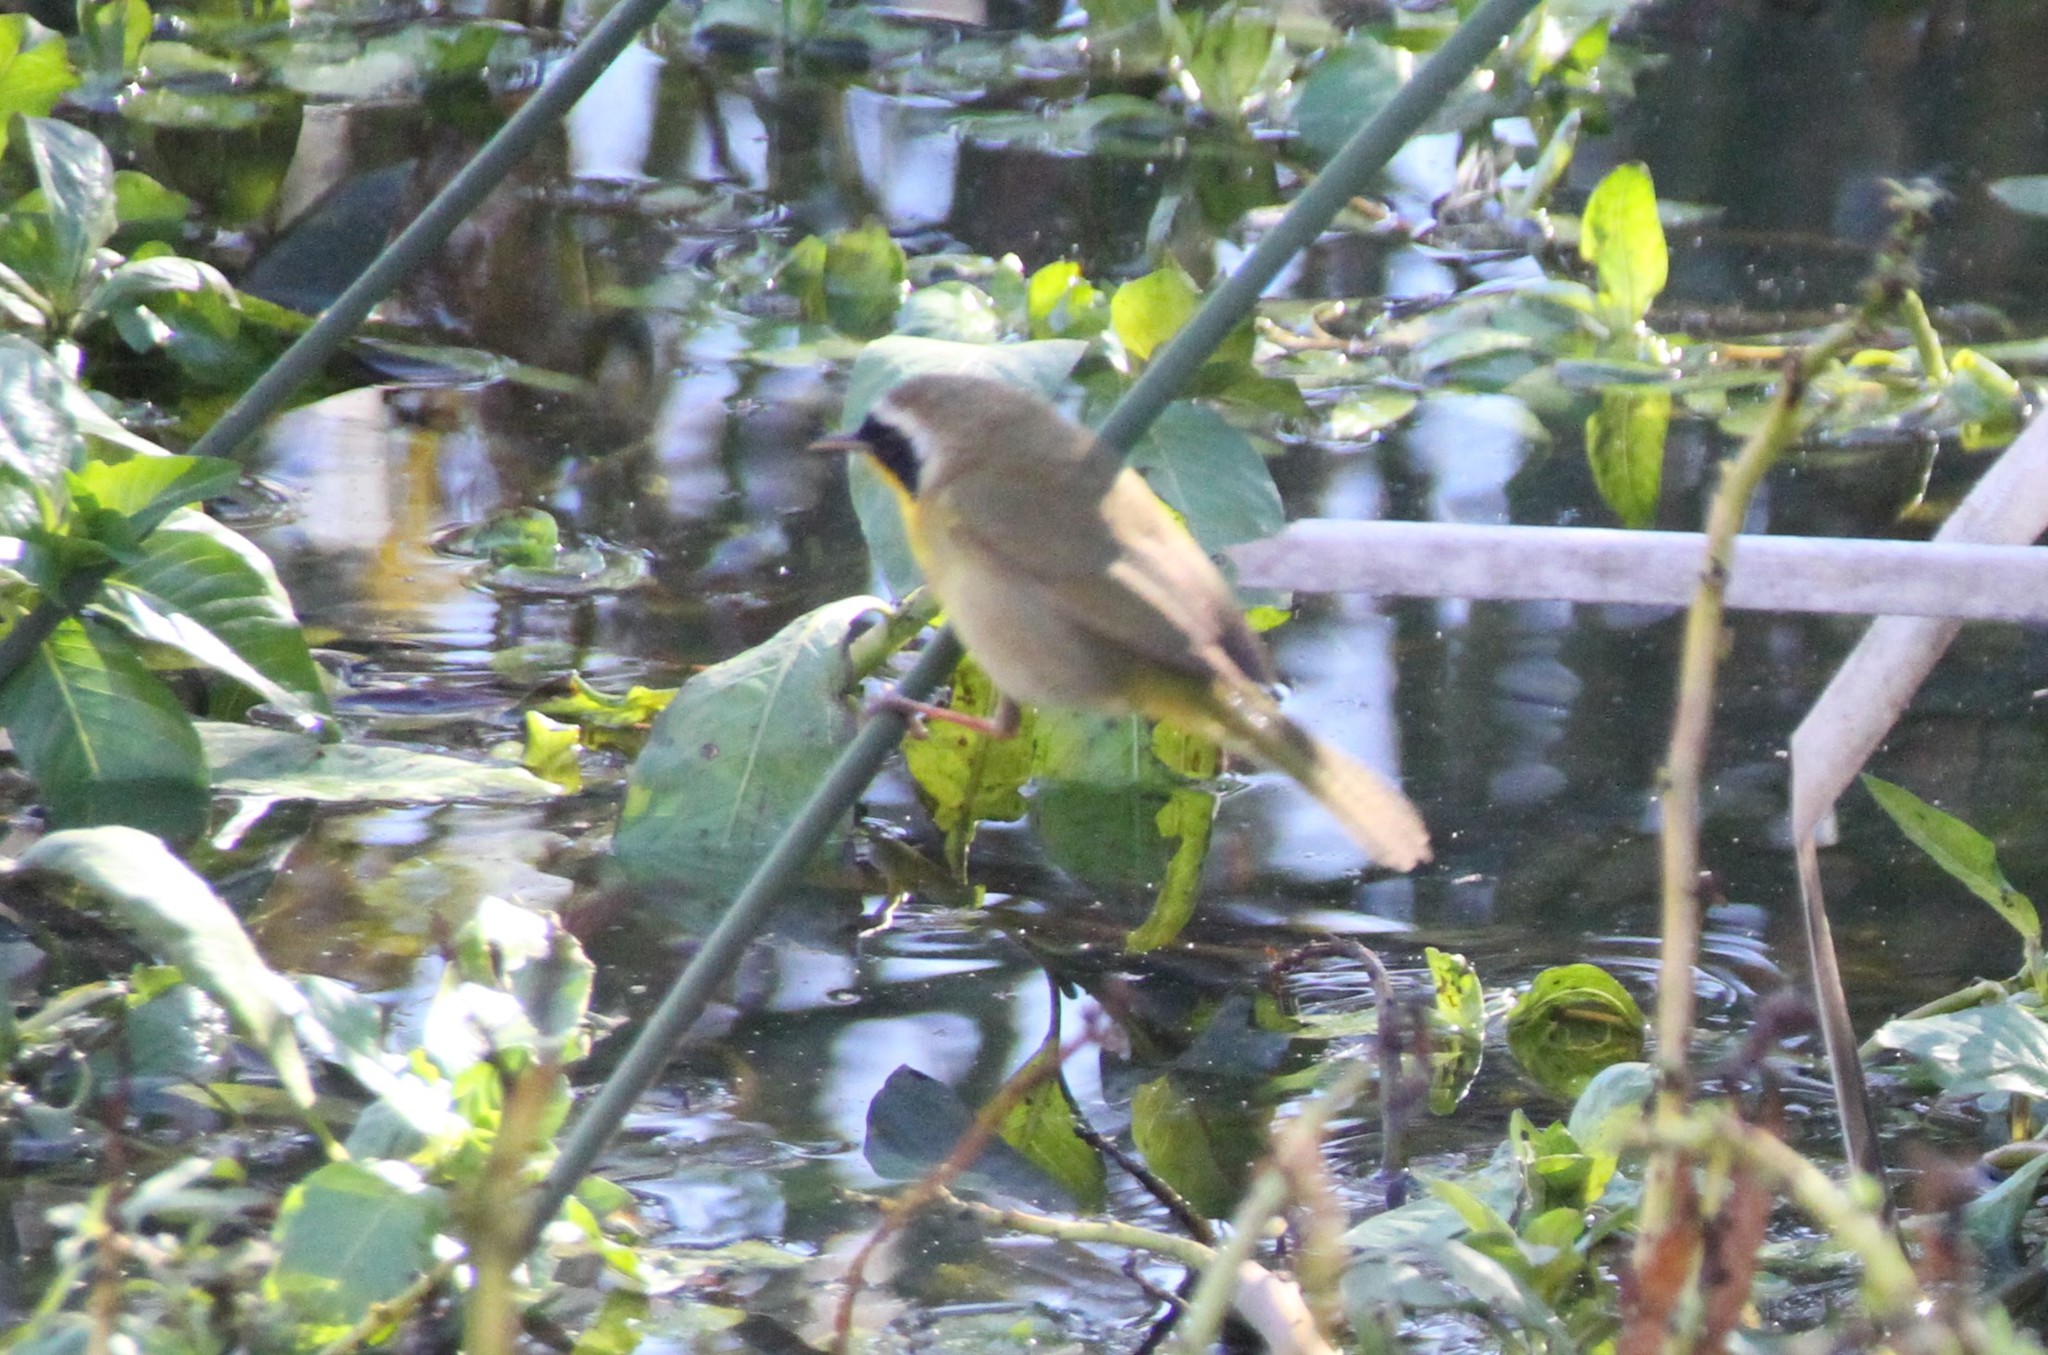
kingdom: Animalia
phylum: Chordata
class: Aves
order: Passeriformes
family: Parulidae
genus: Geothlypis
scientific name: Geothlypis trichas
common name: Common yellowthroat
